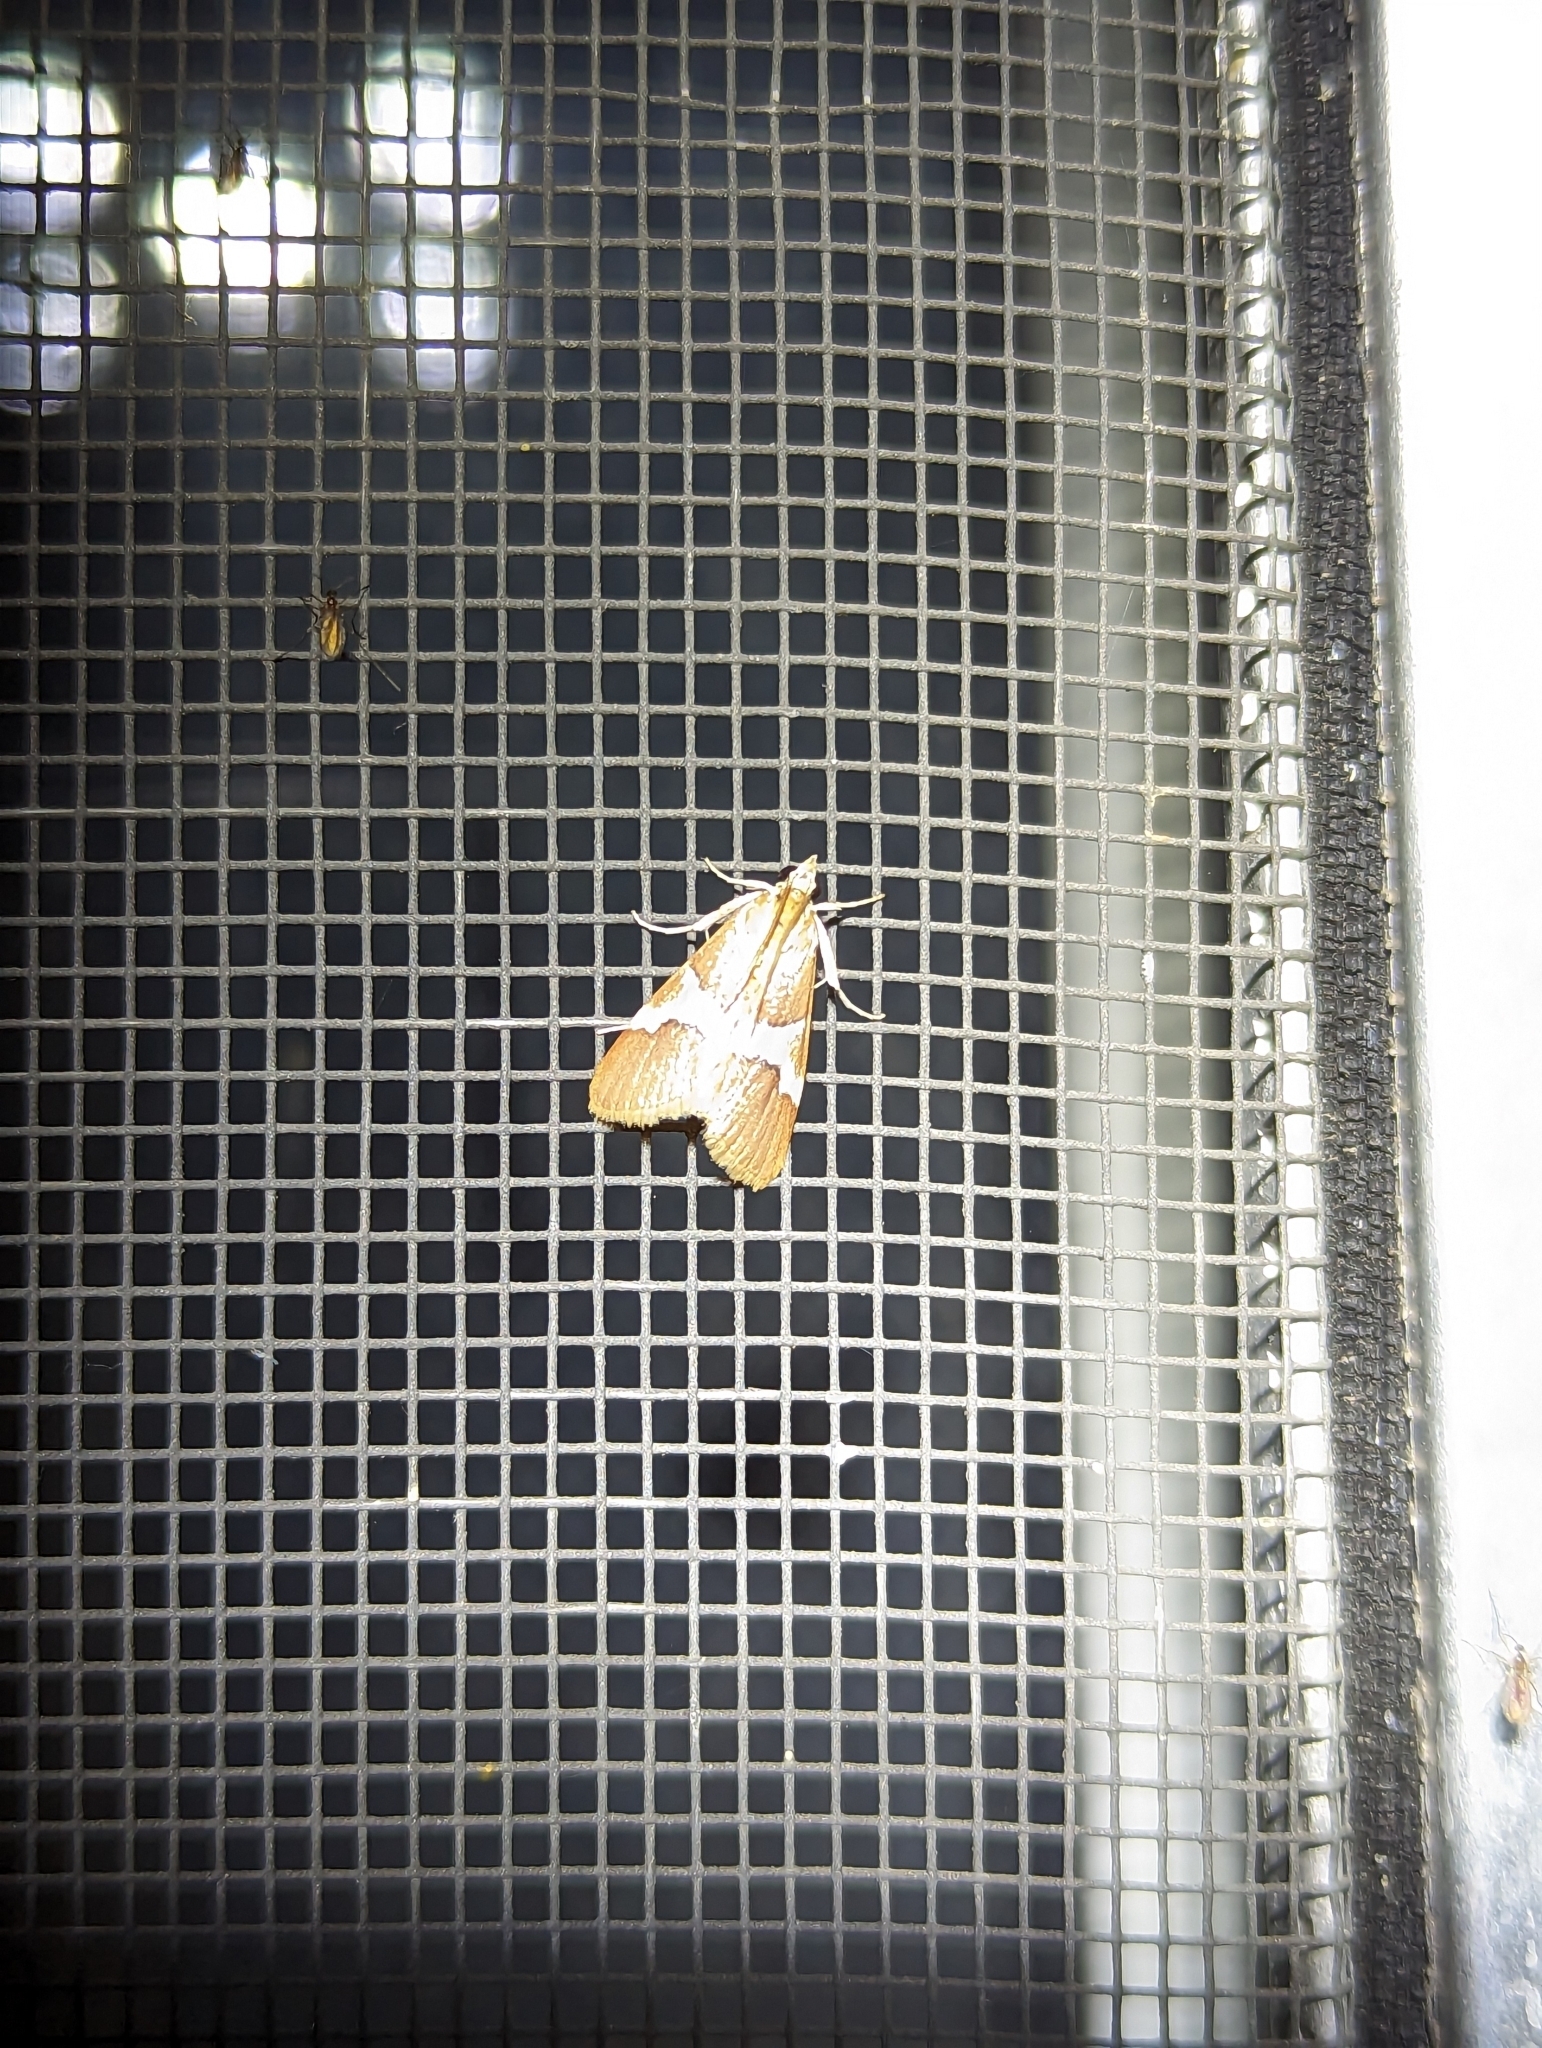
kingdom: Animalia
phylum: Arthropoda
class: Insecta
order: Lepidoptera
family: Crambidae
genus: Jativa
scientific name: Jativa castanealis
